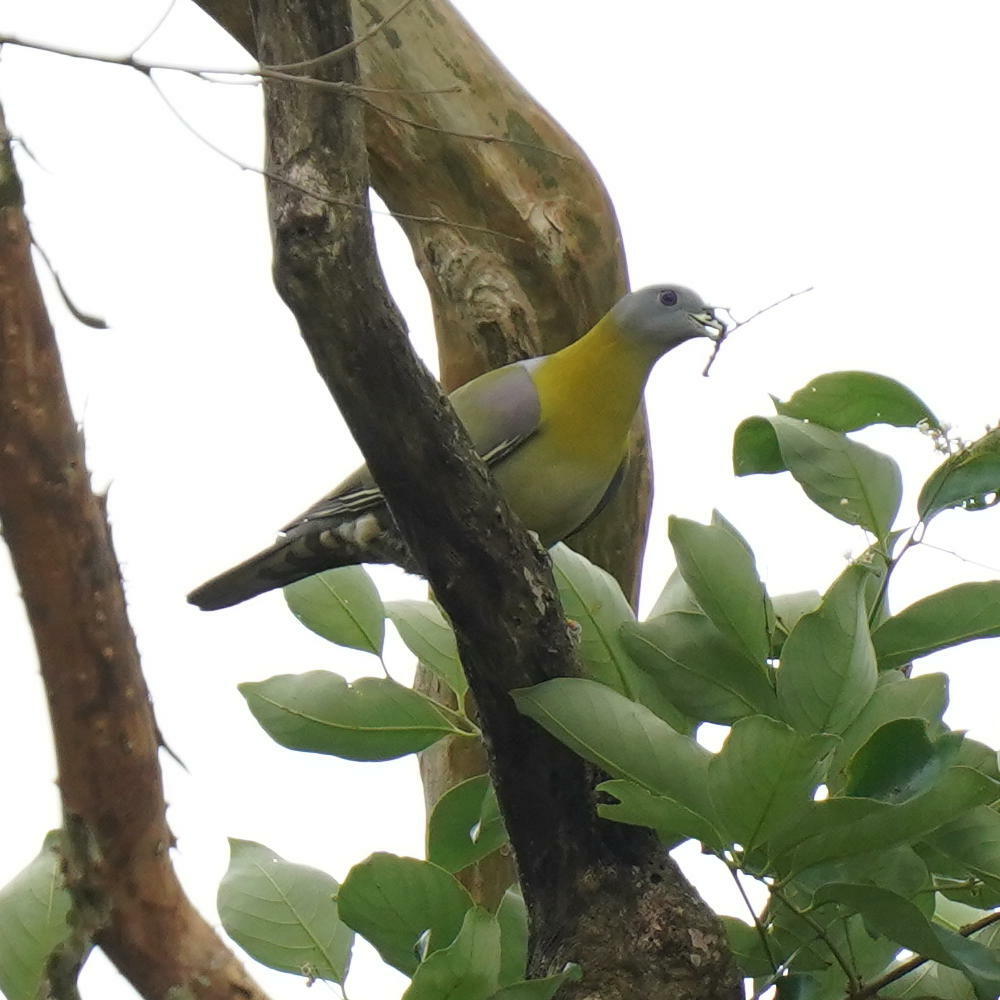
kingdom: Animalia
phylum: Chordata
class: Aves
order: Columbiformes
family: Columbidae
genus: Treron
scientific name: Treron phoenicopterus
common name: Yellow-footed green pigeon
